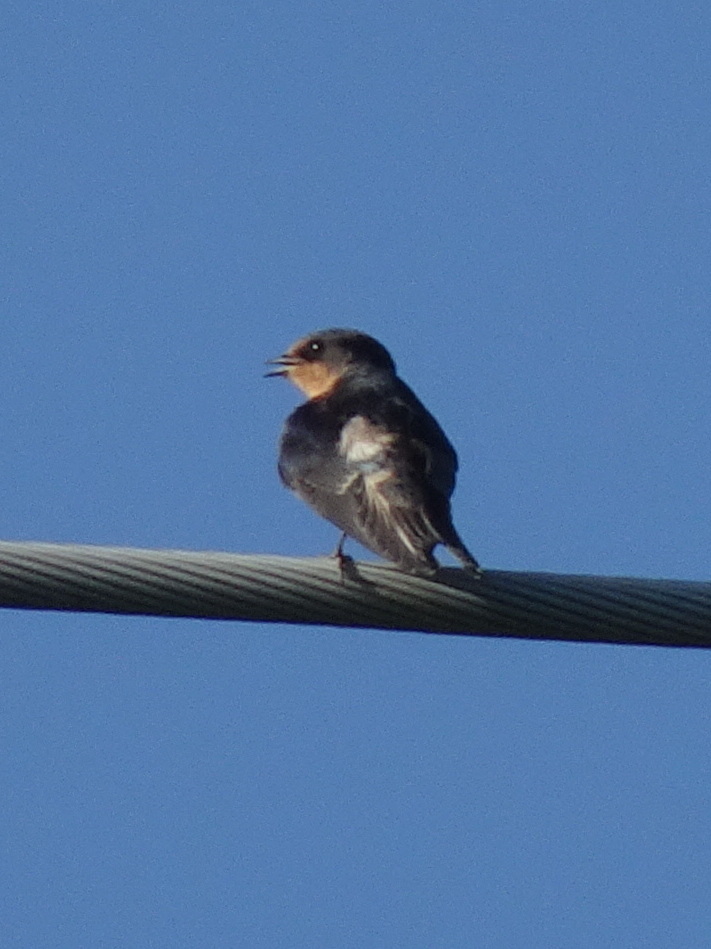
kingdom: Animalia
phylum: Chordata
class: Aves
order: Passeriformes
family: Hirundinidae
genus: Hirundo
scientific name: Hirundo rustica
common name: Barn swallow
